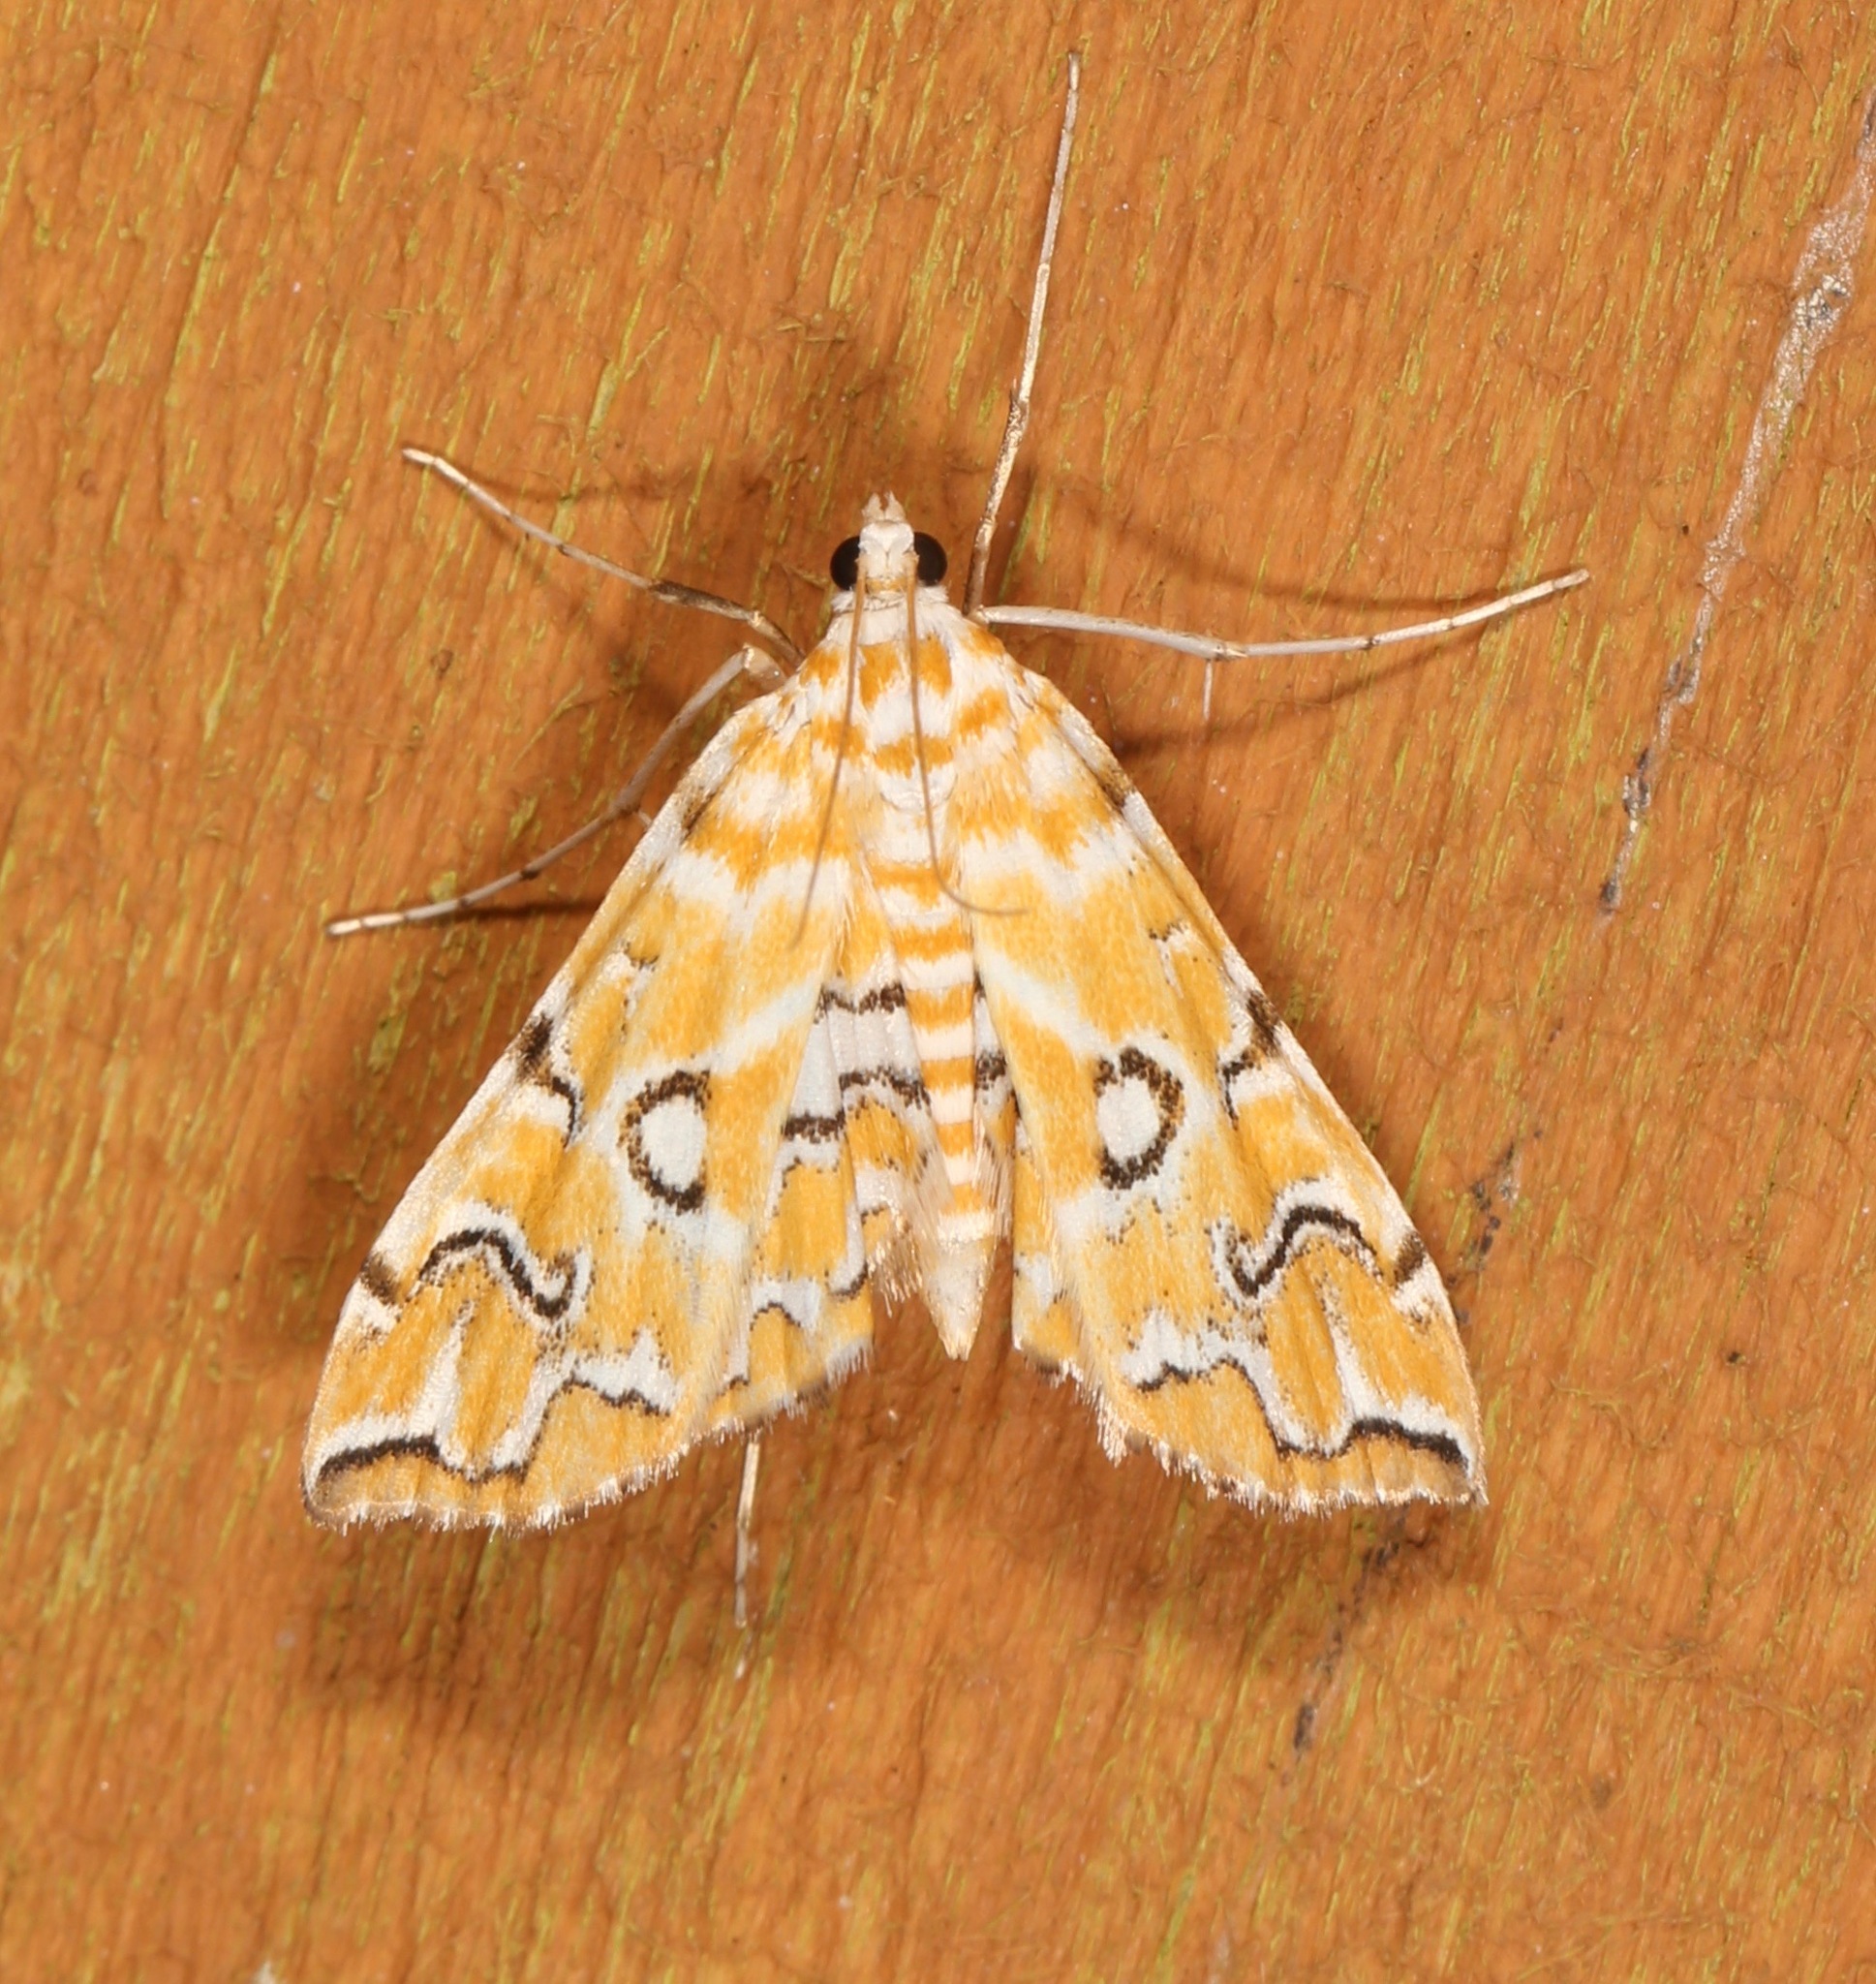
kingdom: Animalia
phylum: Arthropoda
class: Insecta
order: Lepidoptera
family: Crambidae
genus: Elophila
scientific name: Elophila icciusalis
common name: Pondside pyralid moth
